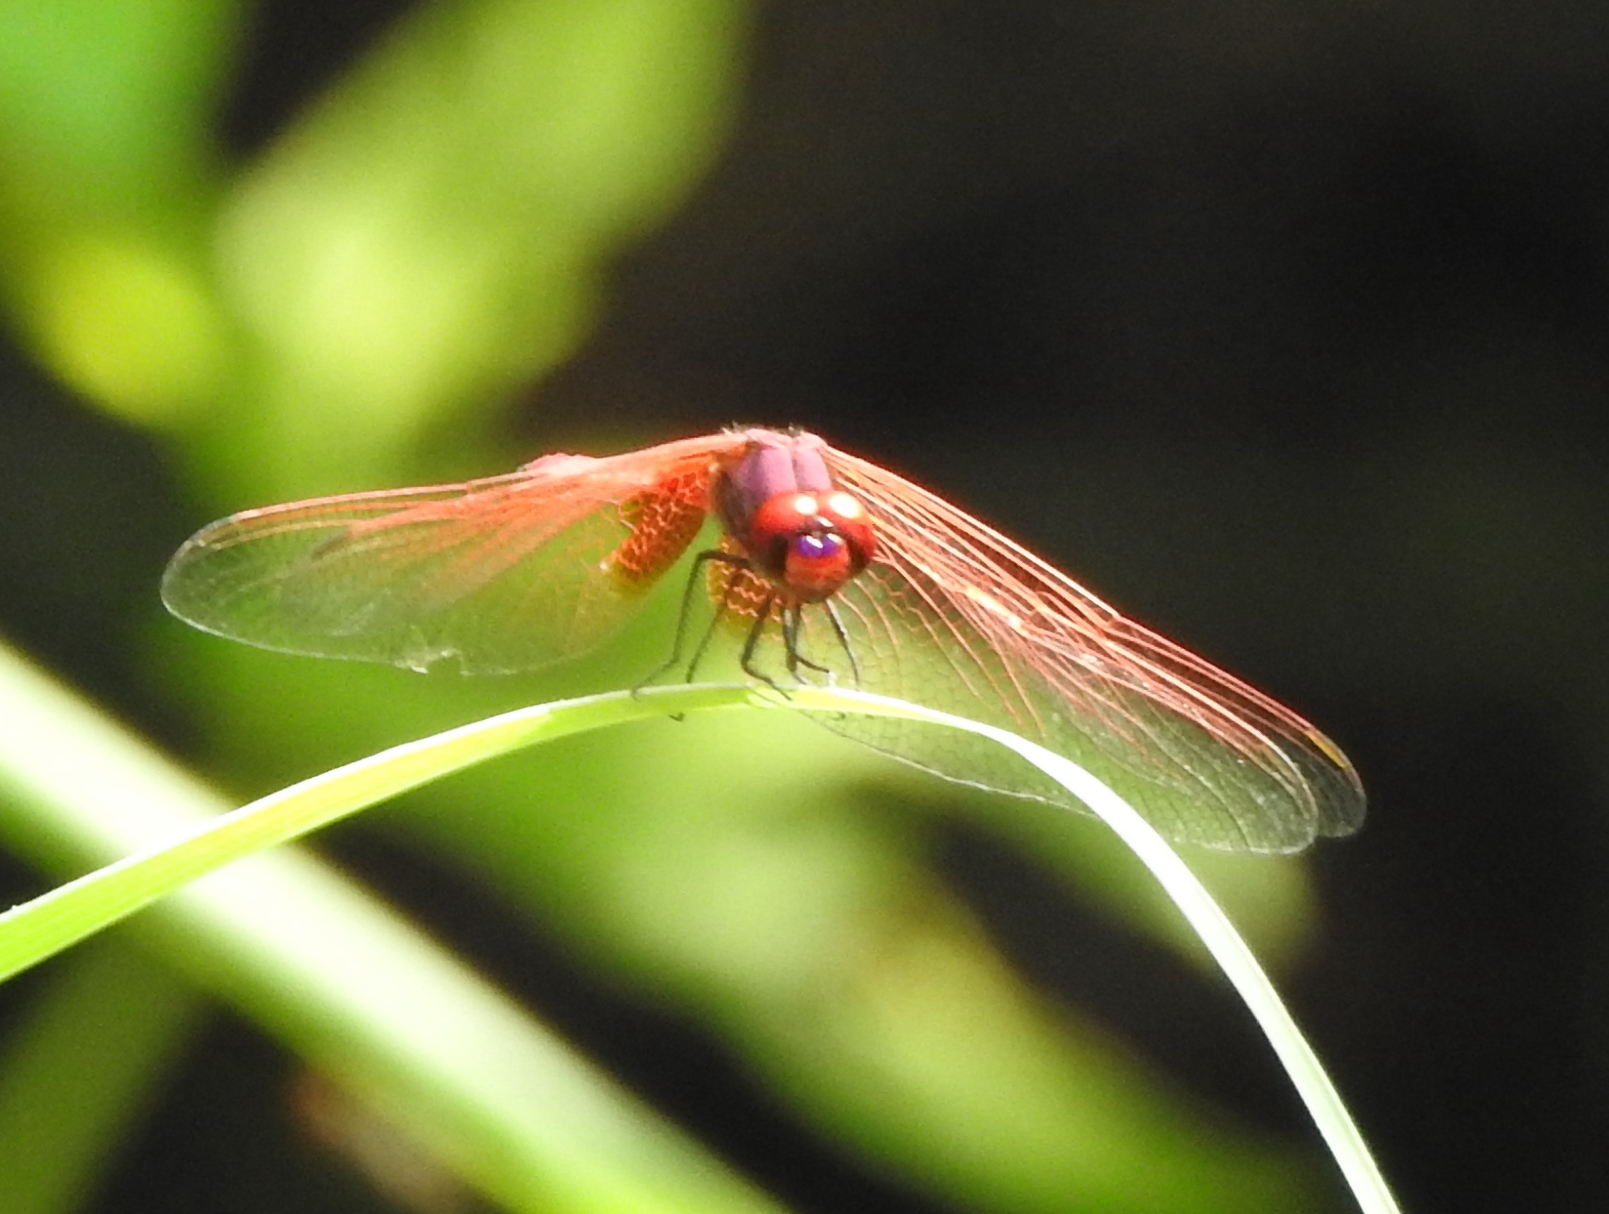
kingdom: Animalia
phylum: Arthropoda
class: Insecta
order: Odonata
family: Libellulidae
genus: Trithemis
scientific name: Trithemis aurora
